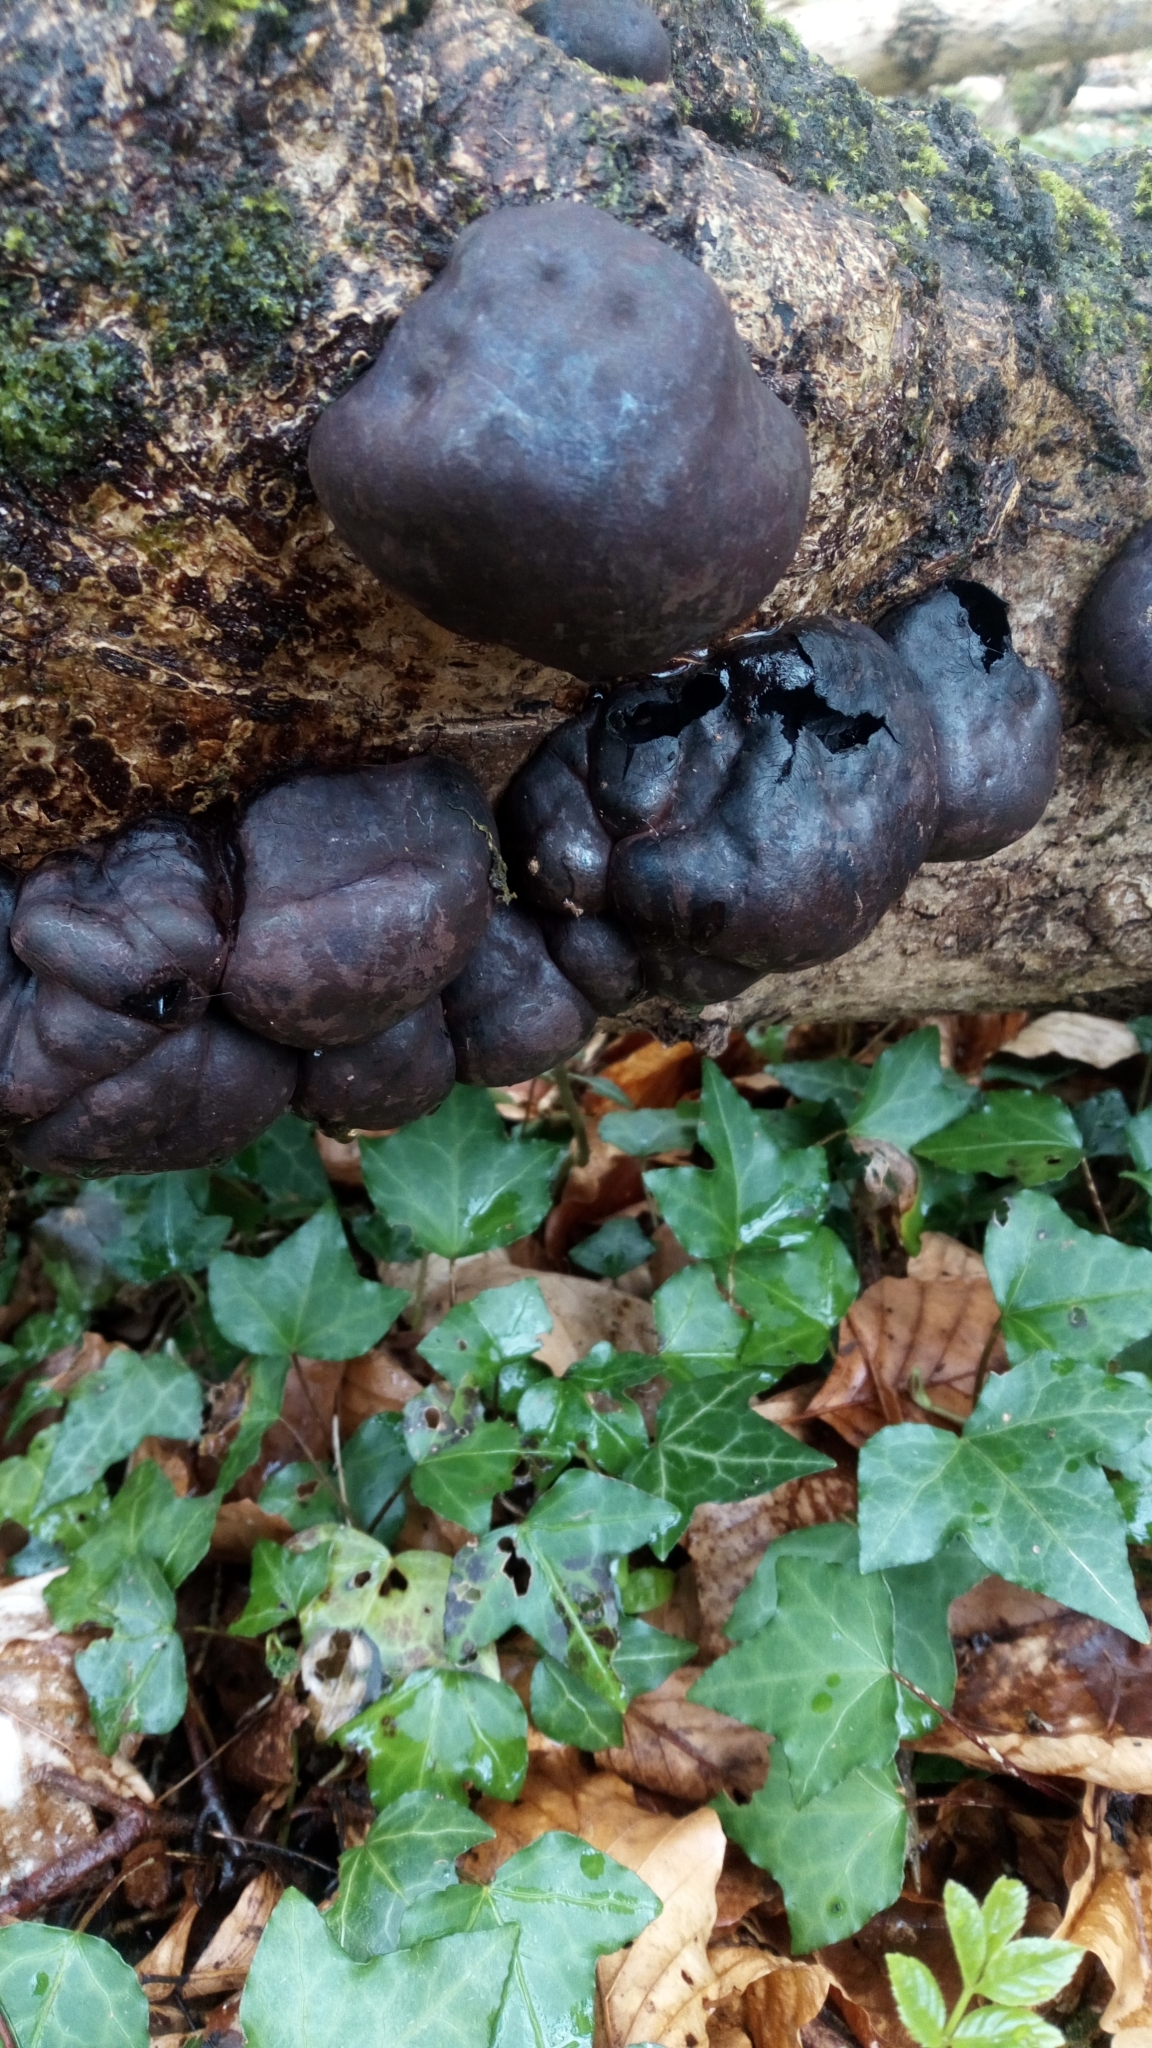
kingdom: Fungi
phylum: Ascomycota
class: Sordariomycetes
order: Xylariales
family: Hypoxylaceae
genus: Daldinia
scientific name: Daldinia concentrica
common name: Cramp balls
